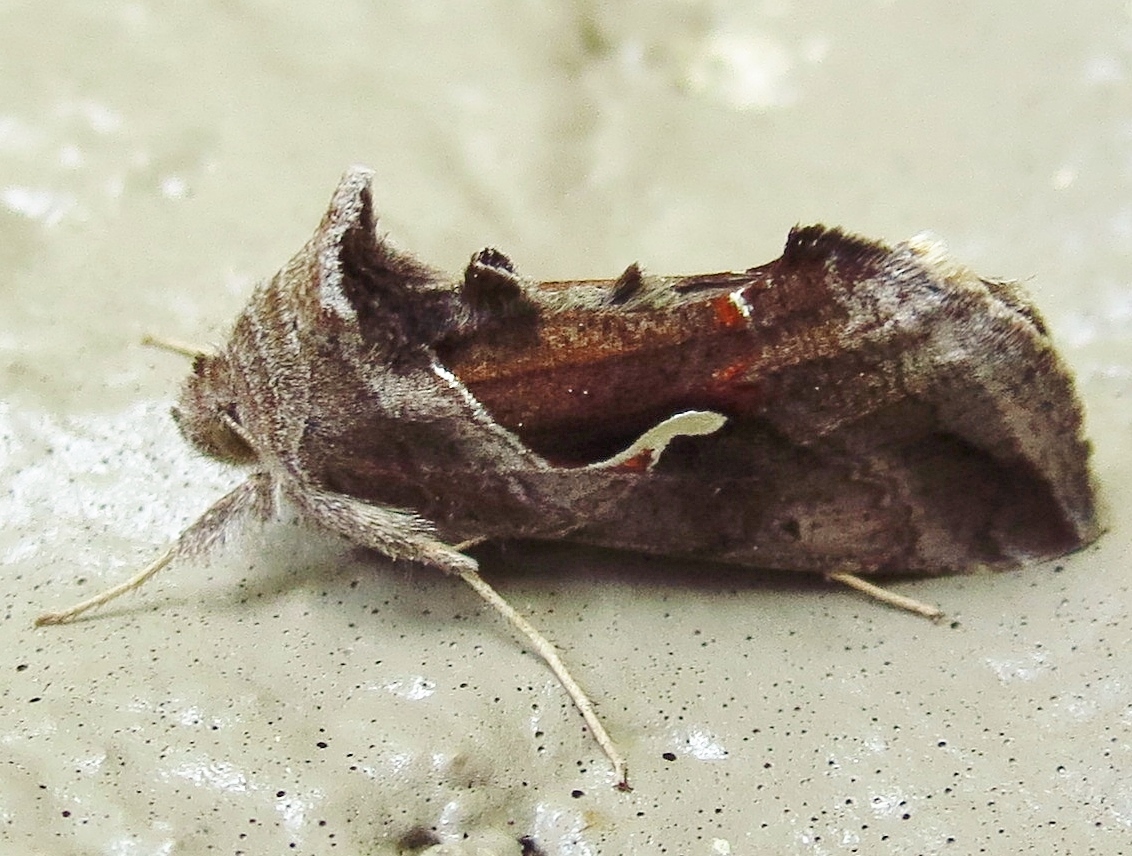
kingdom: Animalia
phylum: Arthropoda
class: Insecta
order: Lepidoptera
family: Noctuidae
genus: Anagrapha
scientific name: Anagrapha falcifera
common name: Celery looper
